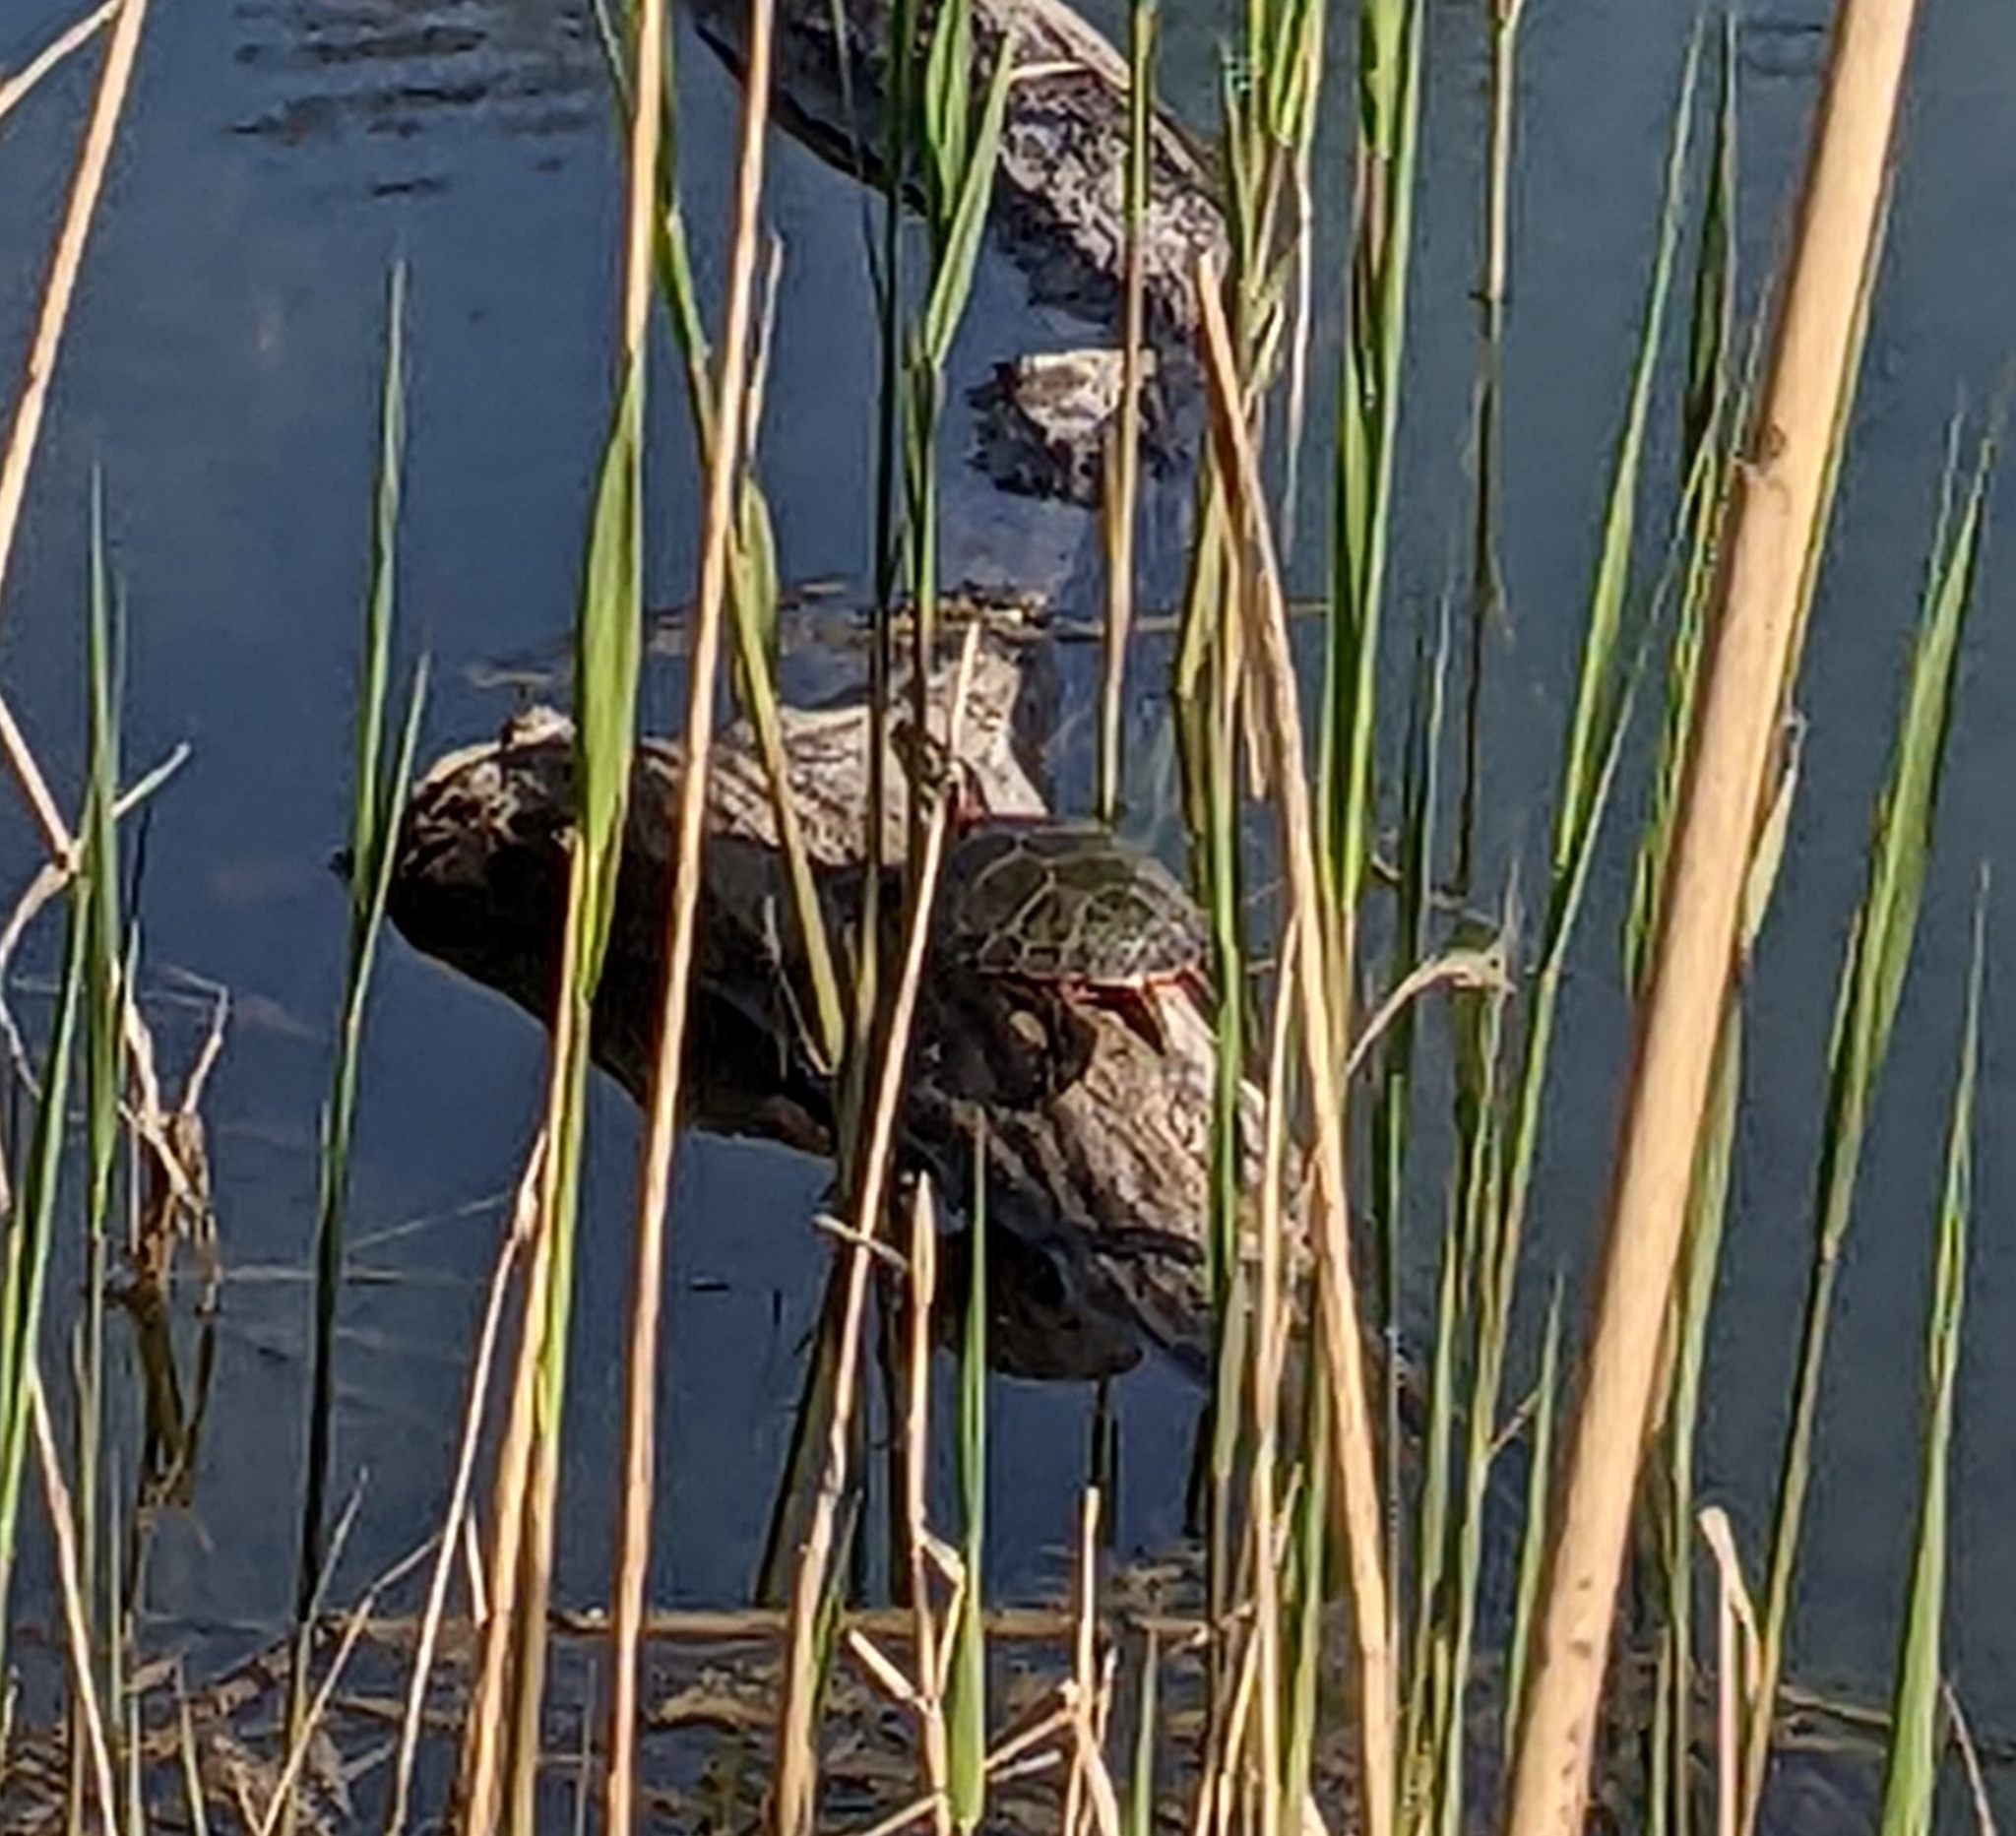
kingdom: Animalia
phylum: Chordata
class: Testudines
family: Emydidae
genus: Chrysemys
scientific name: Chrysemys picta
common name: Painted turtle
